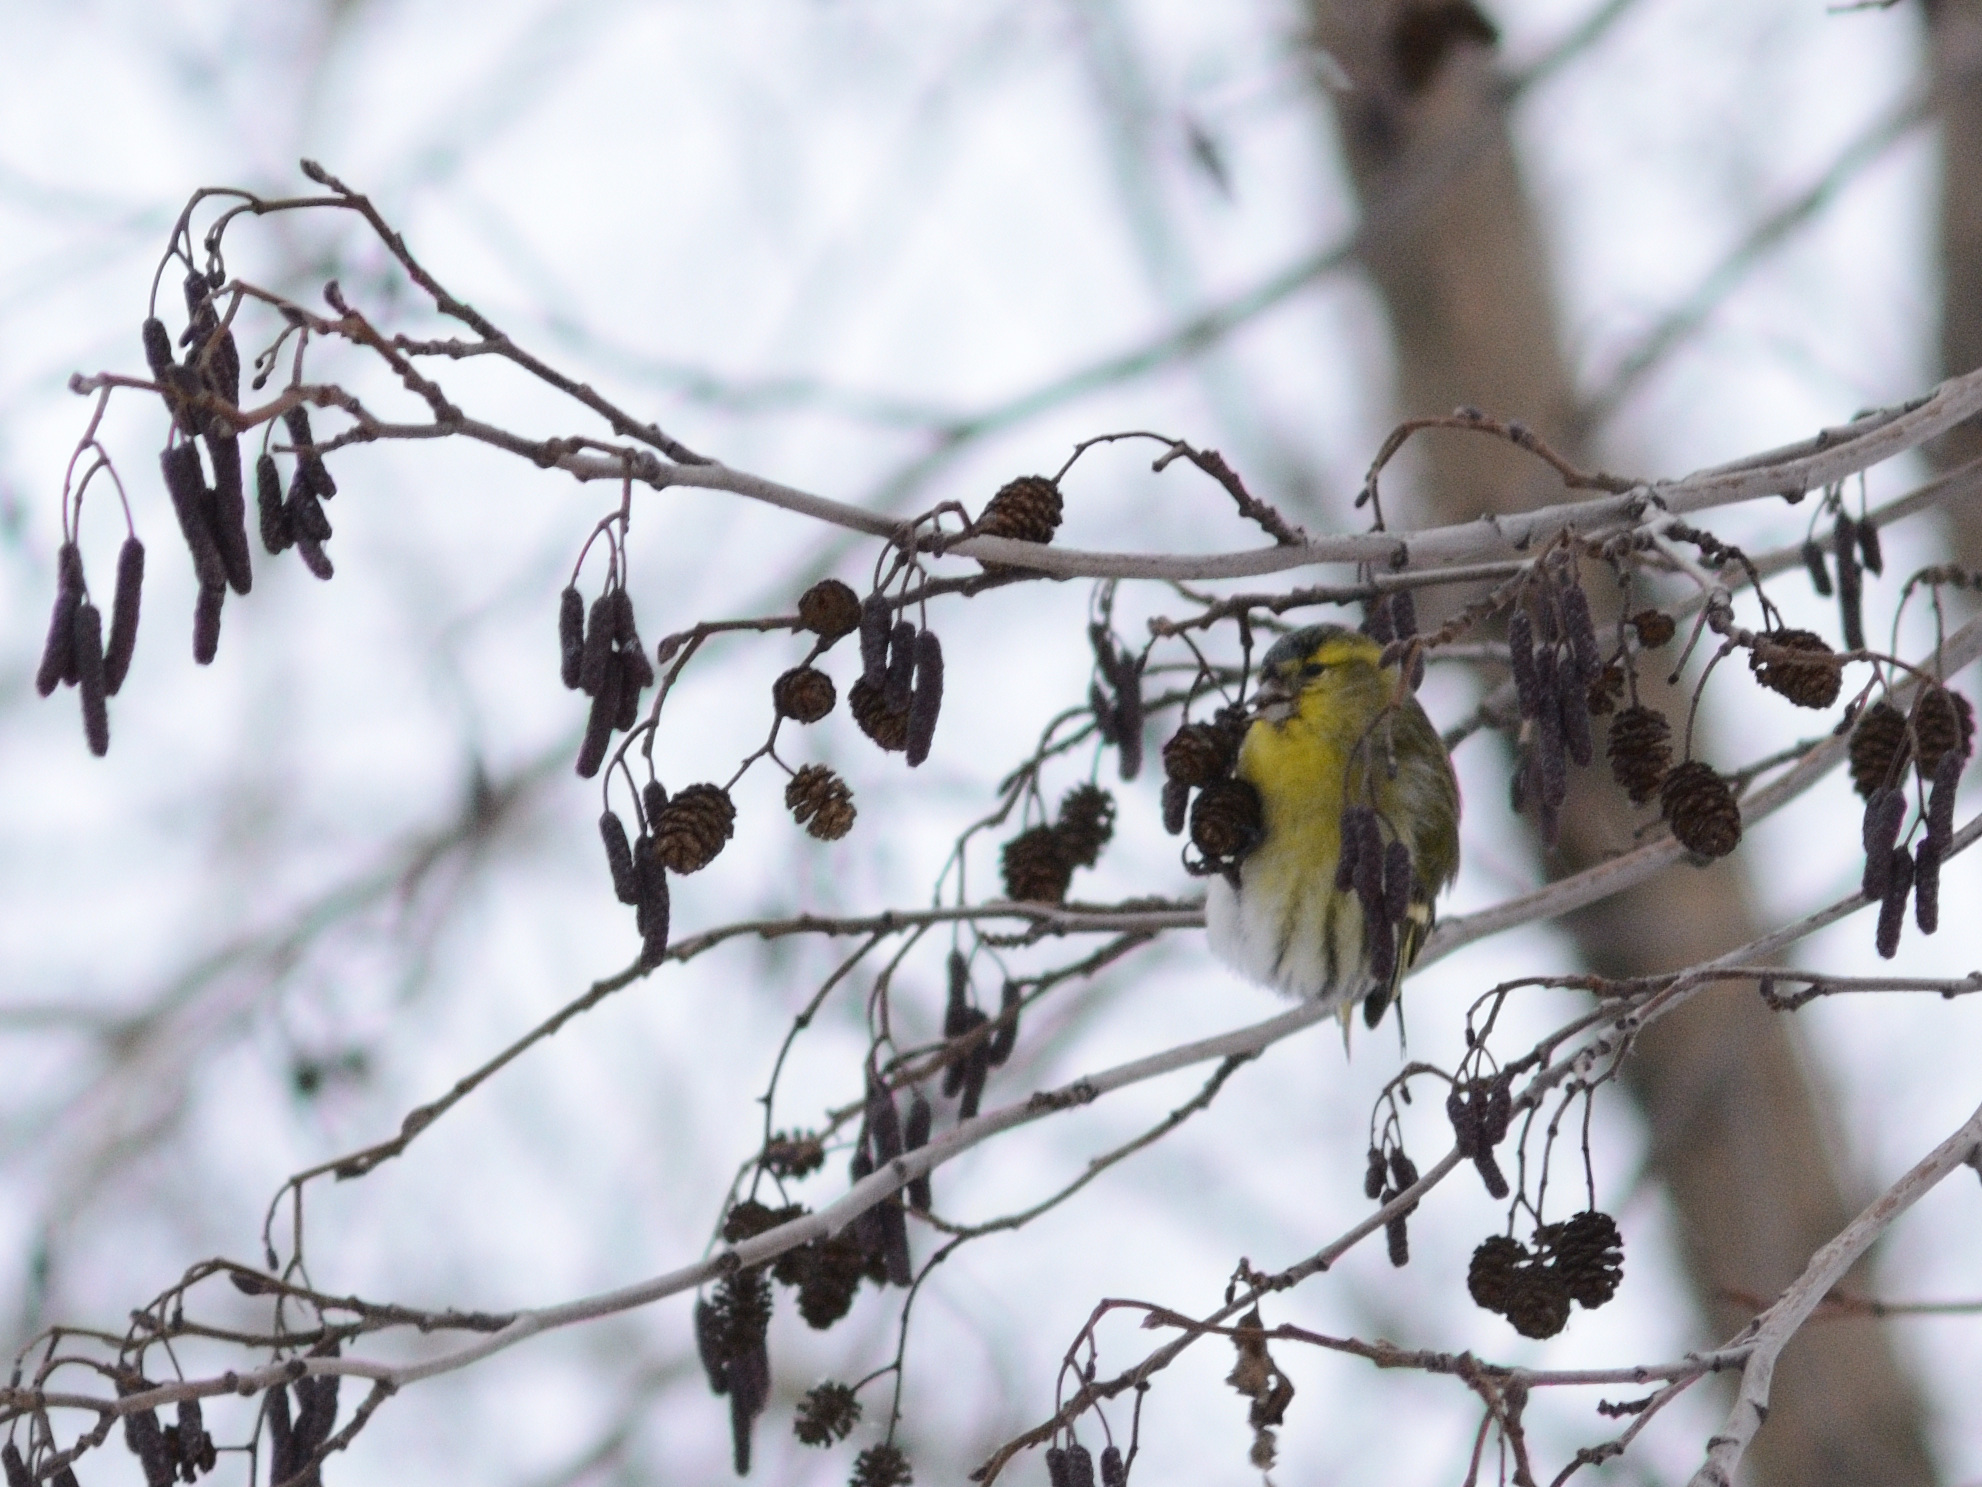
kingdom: Animalia
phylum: Chordata
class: Aves
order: Passeriformes
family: Fringillidae
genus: Spinus
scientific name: Spinus spinus
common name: Eurasian siskin
